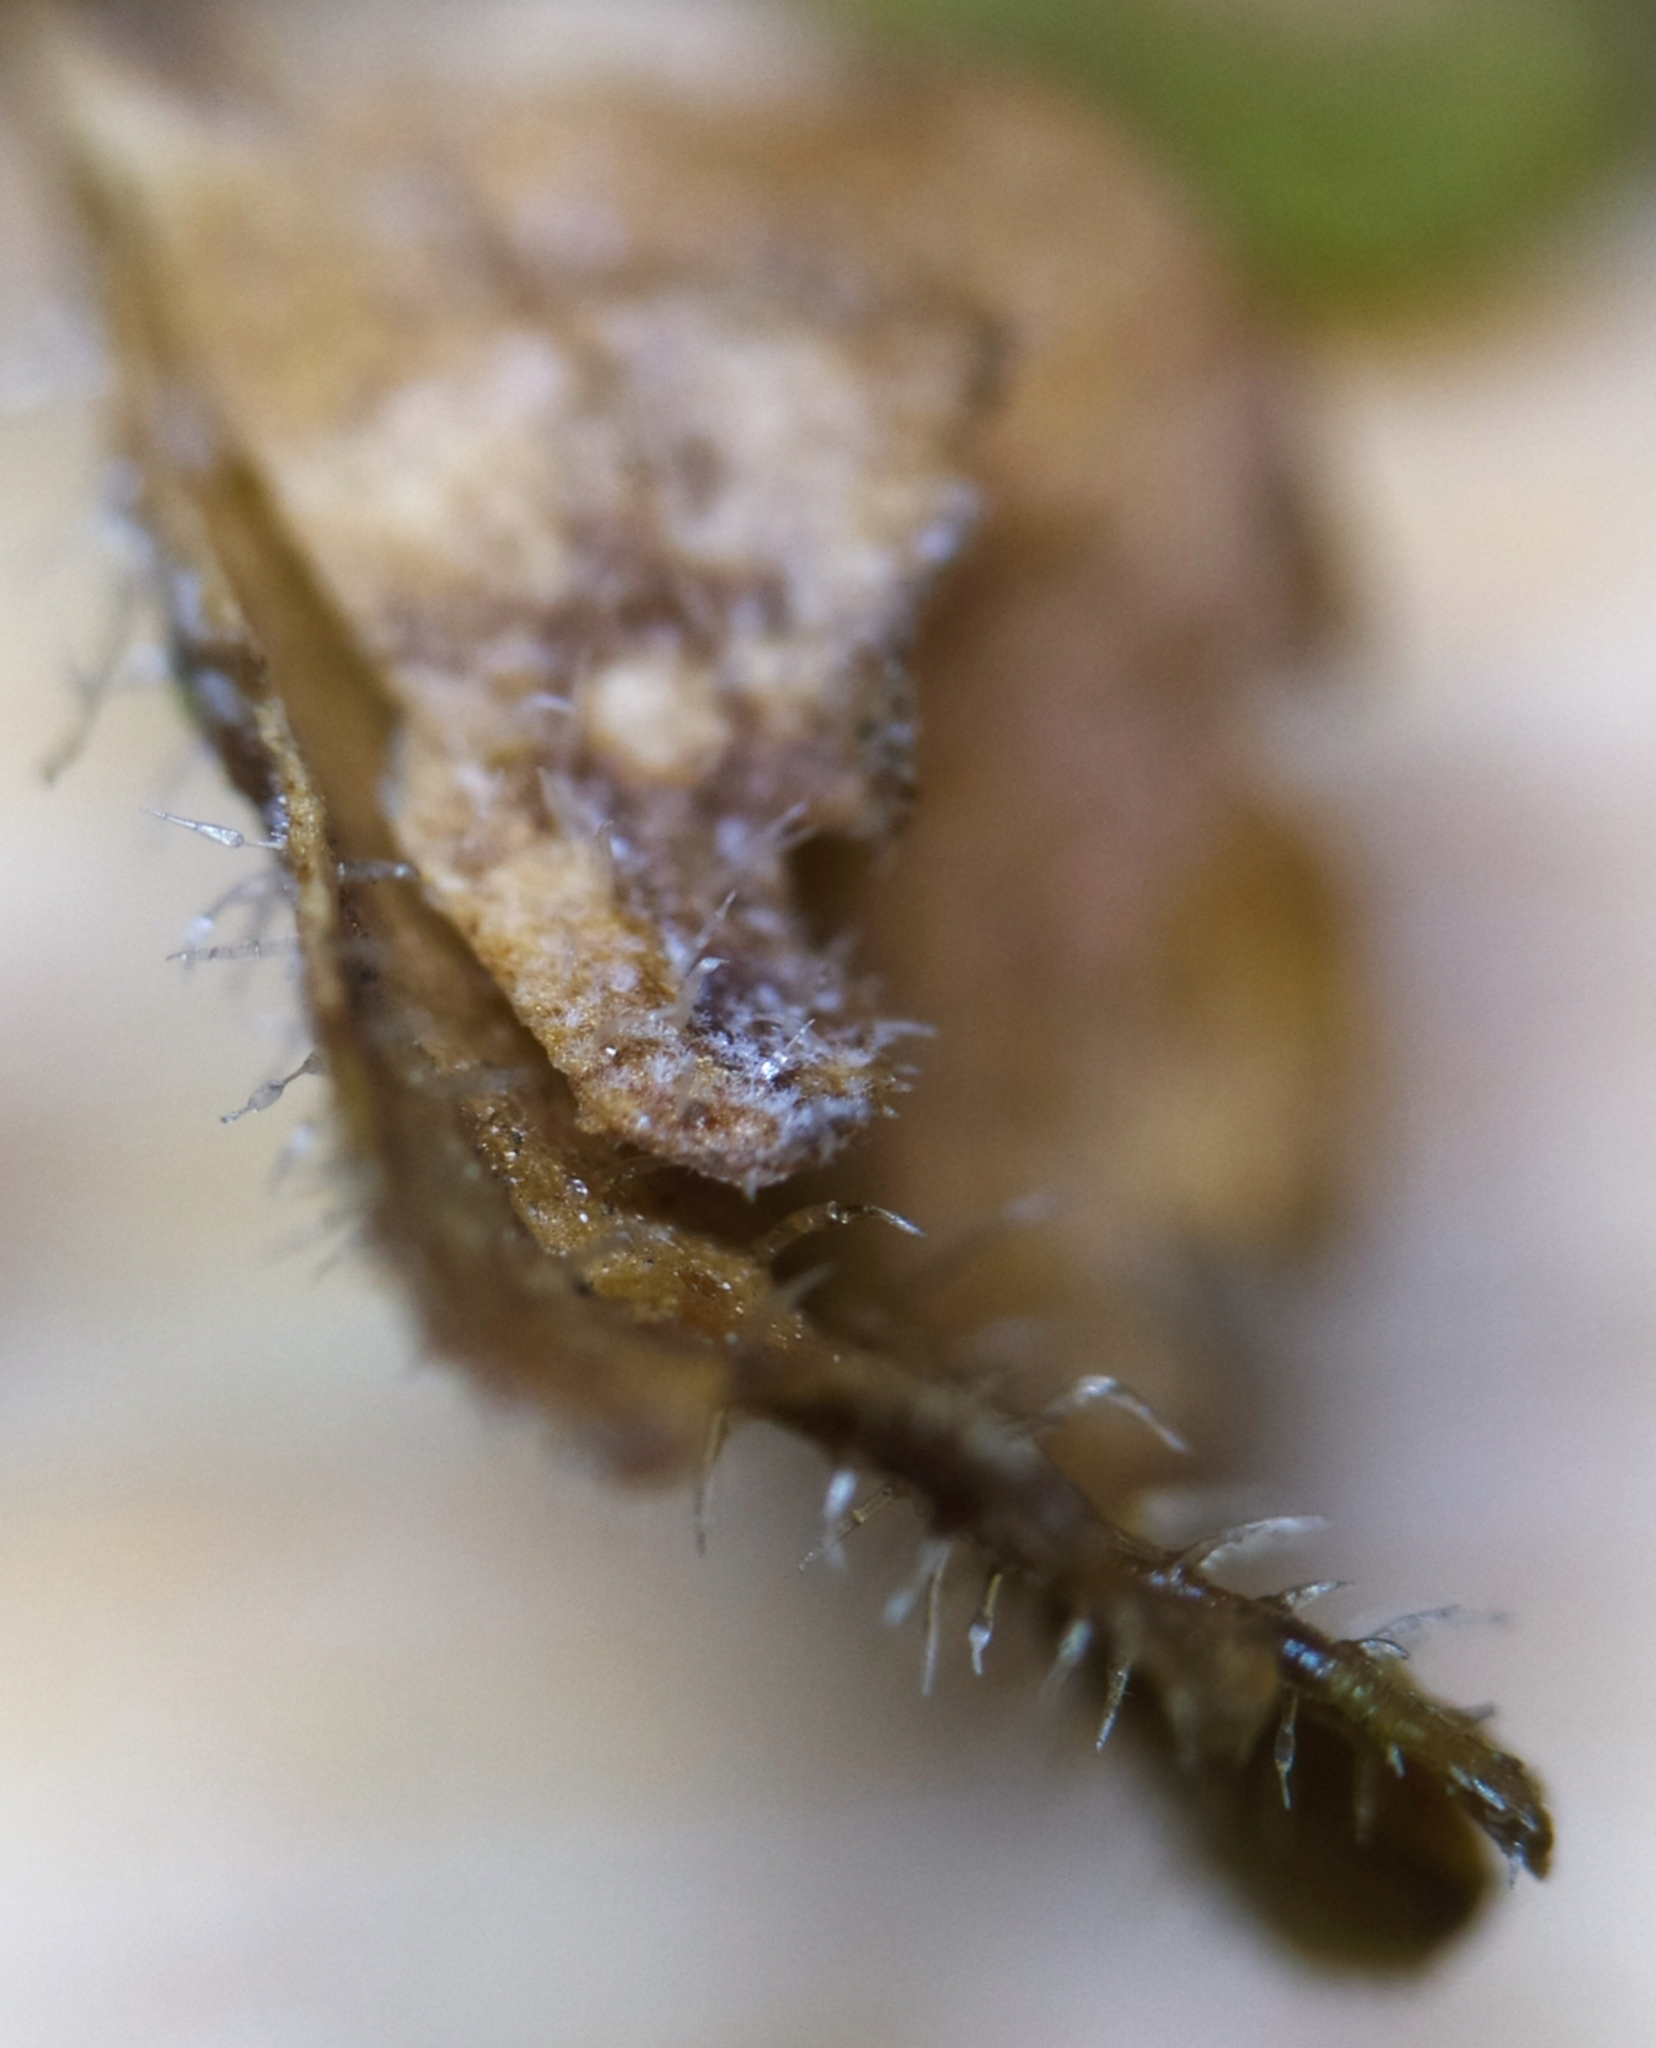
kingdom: Fungi
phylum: Ascomycota
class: Dothideomycetes
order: Mycosphaerellales
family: Mycosphaerellaceae
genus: Ramularia
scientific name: Ramularia veronicae
